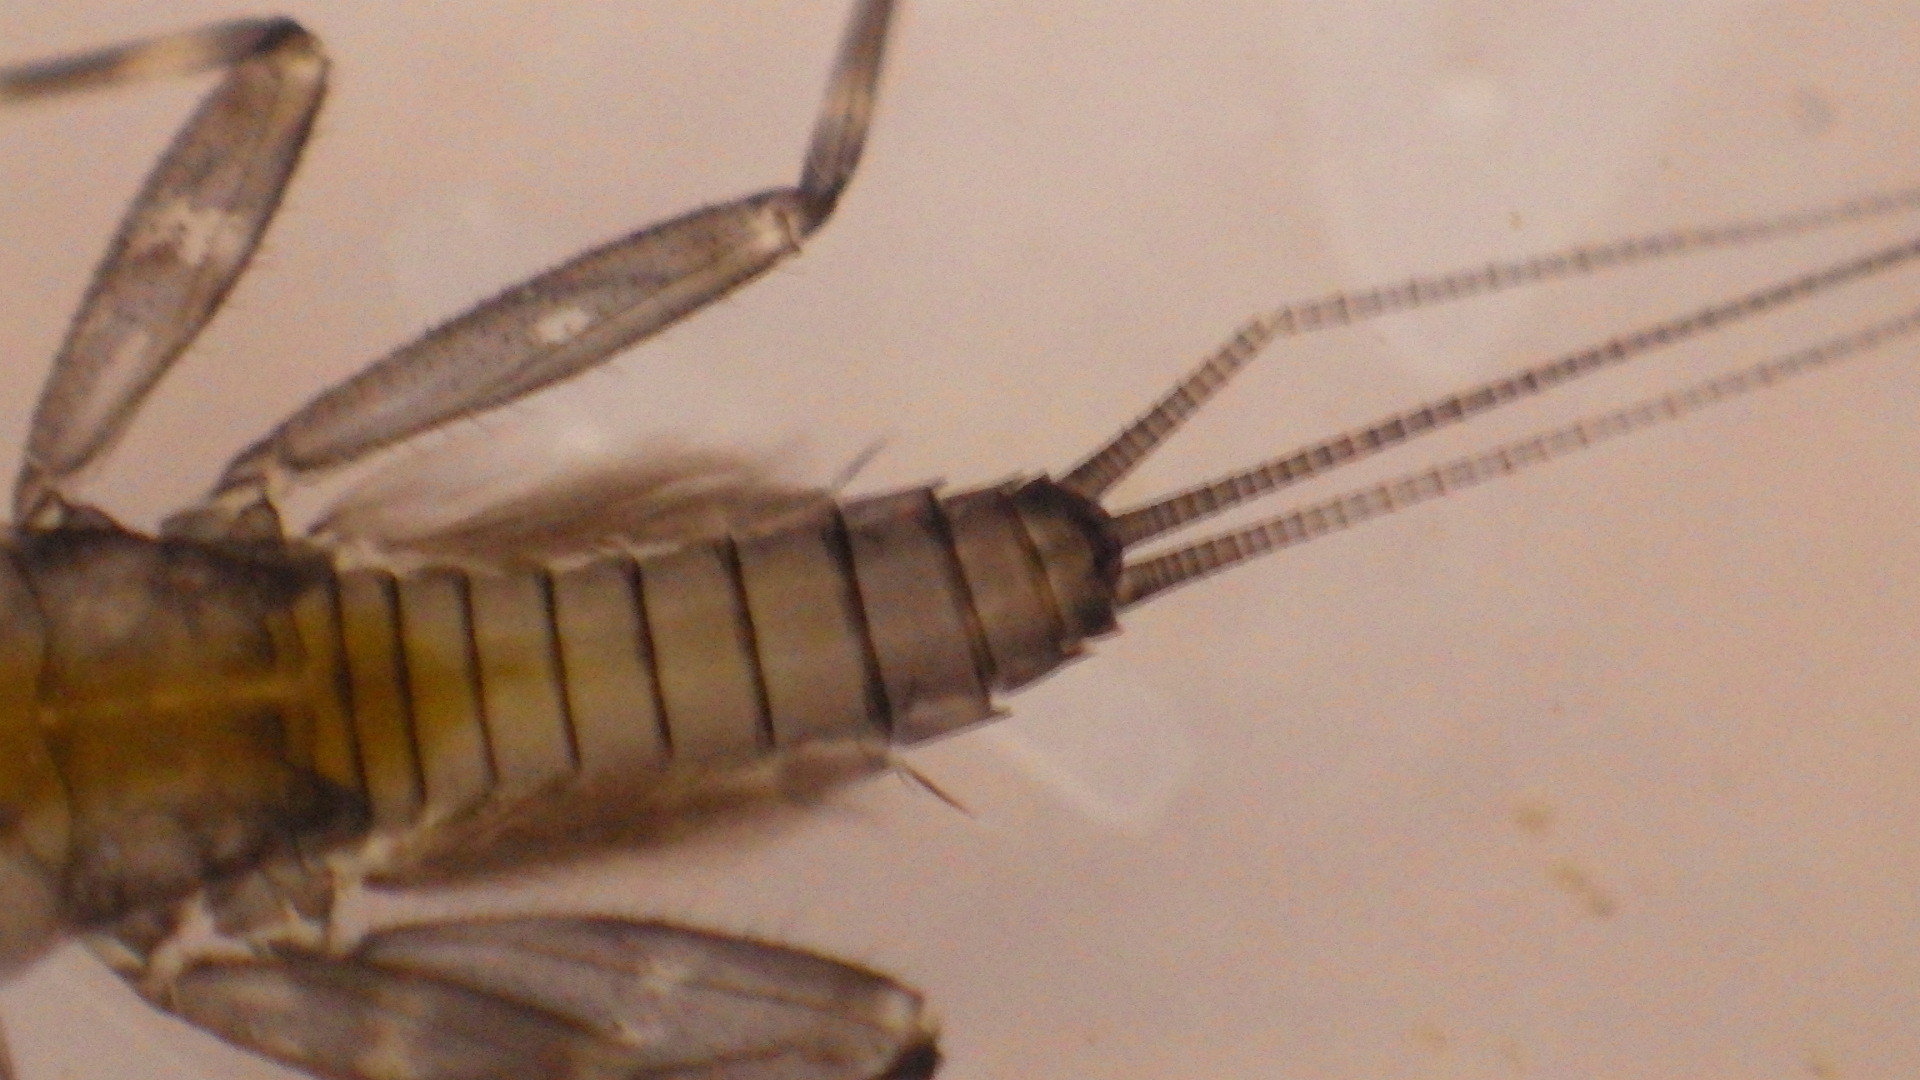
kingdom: Animalia
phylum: Arthropoda
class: Insecta
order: Ephemeroptera
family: Heptageniidae
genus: Stenacron
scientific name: Stenacron carolina
